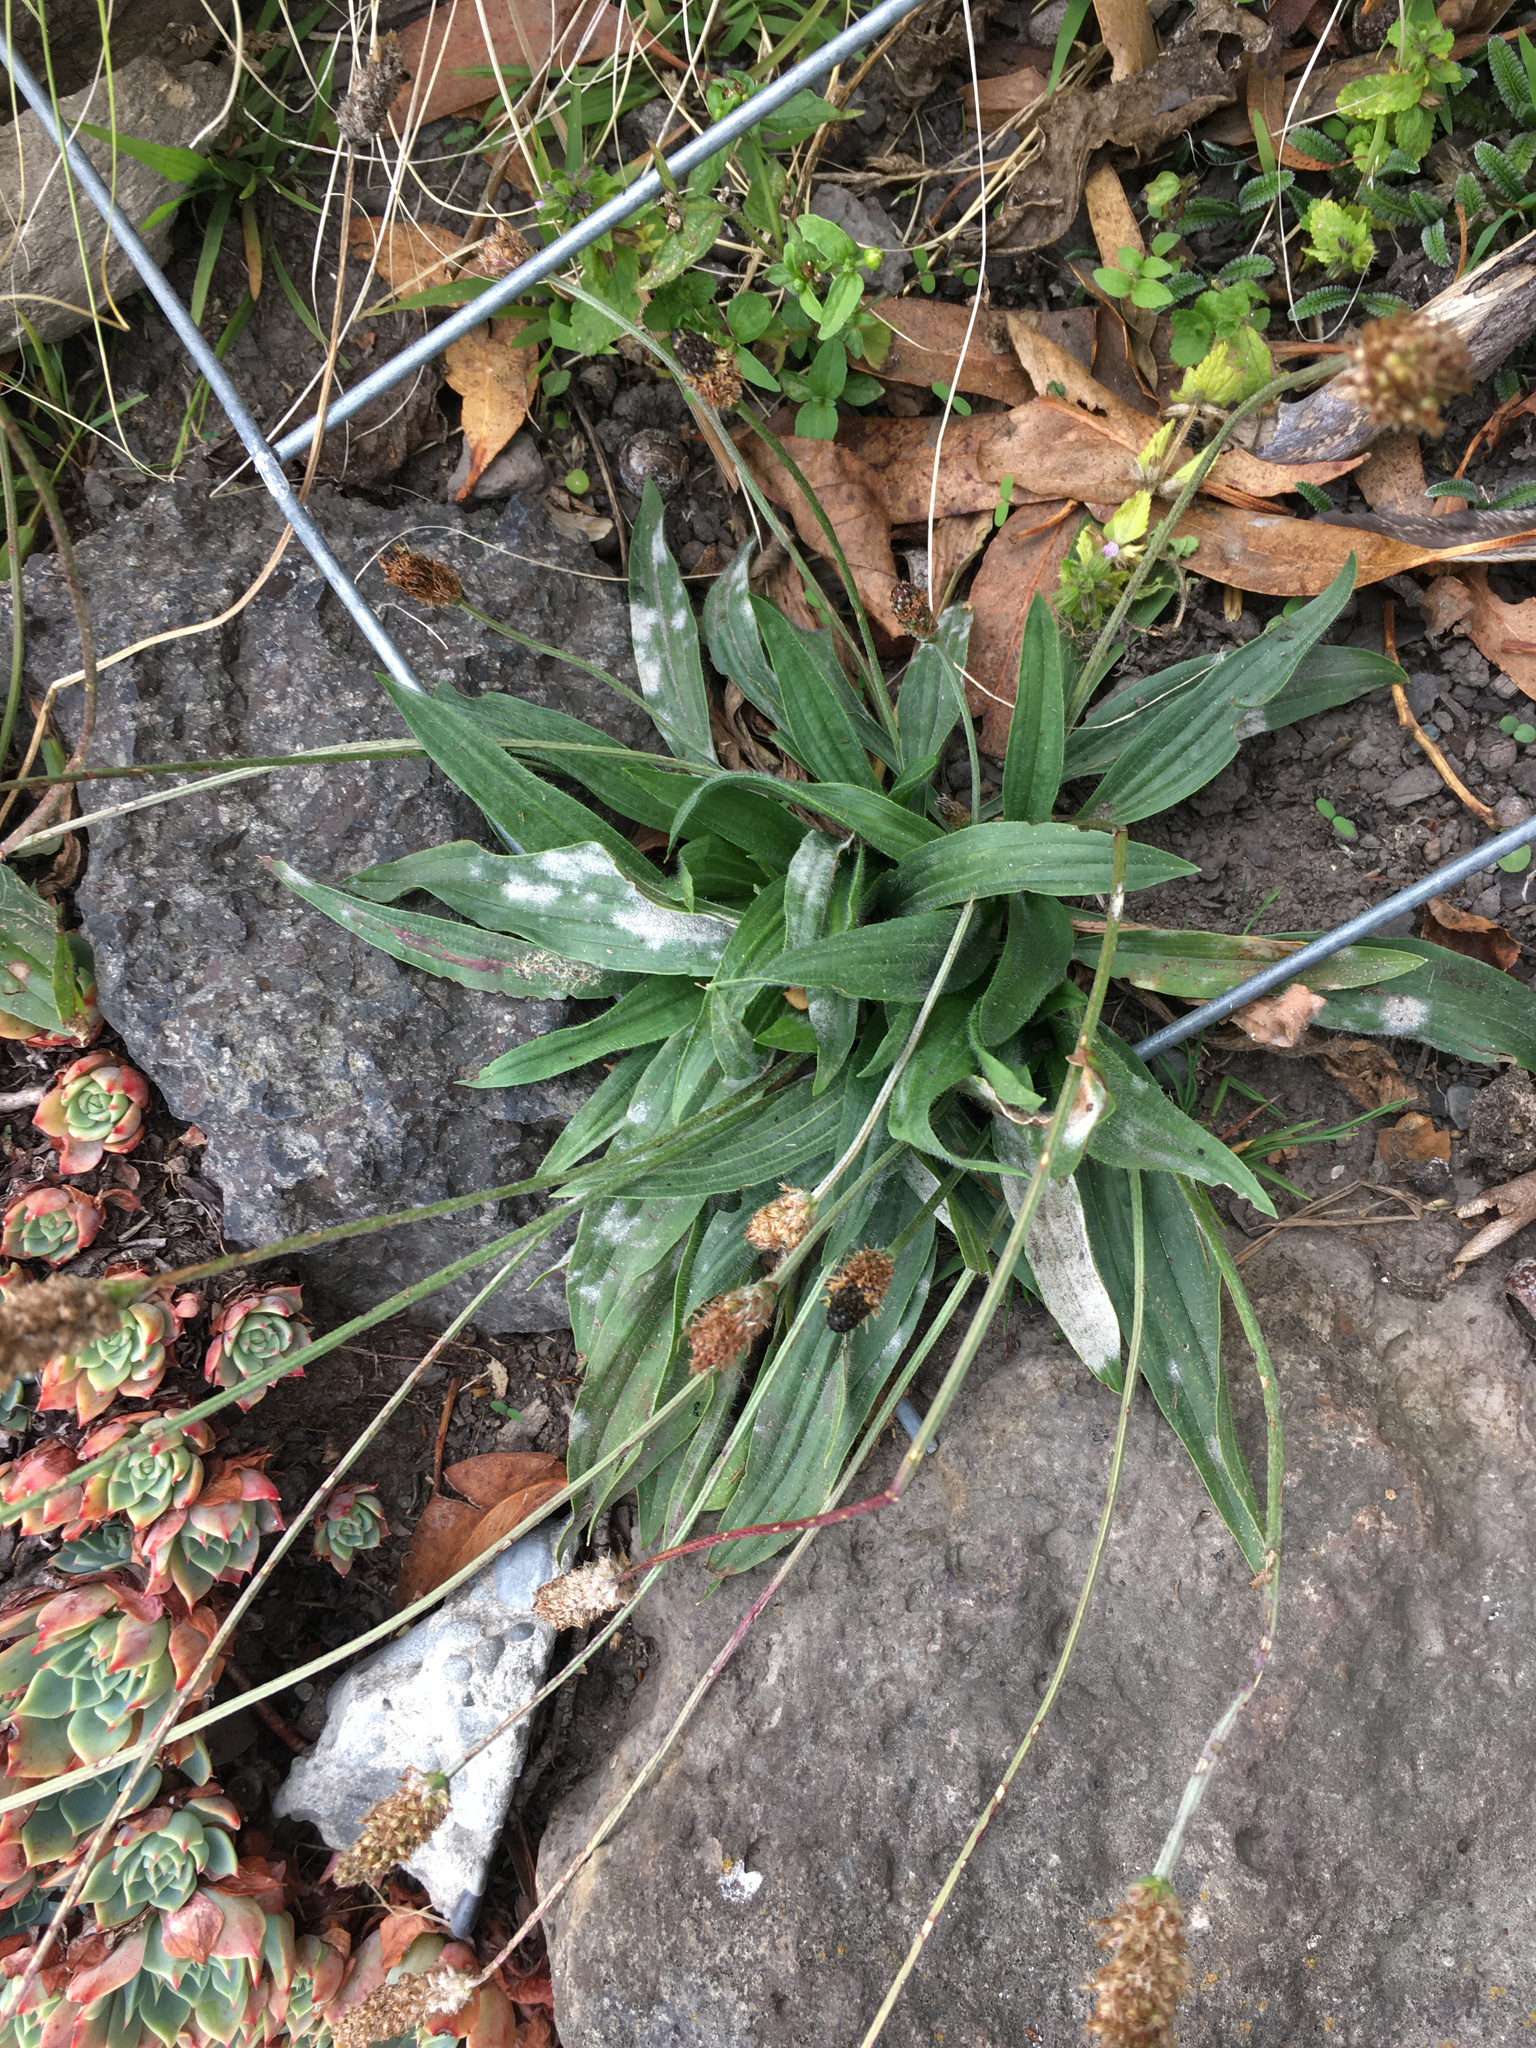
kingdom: Plantae
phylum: Tracheophyta
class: Magnoliopsida
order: Lamiales
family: Plantaginaceae
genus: Plantago
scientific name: Plantago lanceolata
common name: Ribwort plantain
